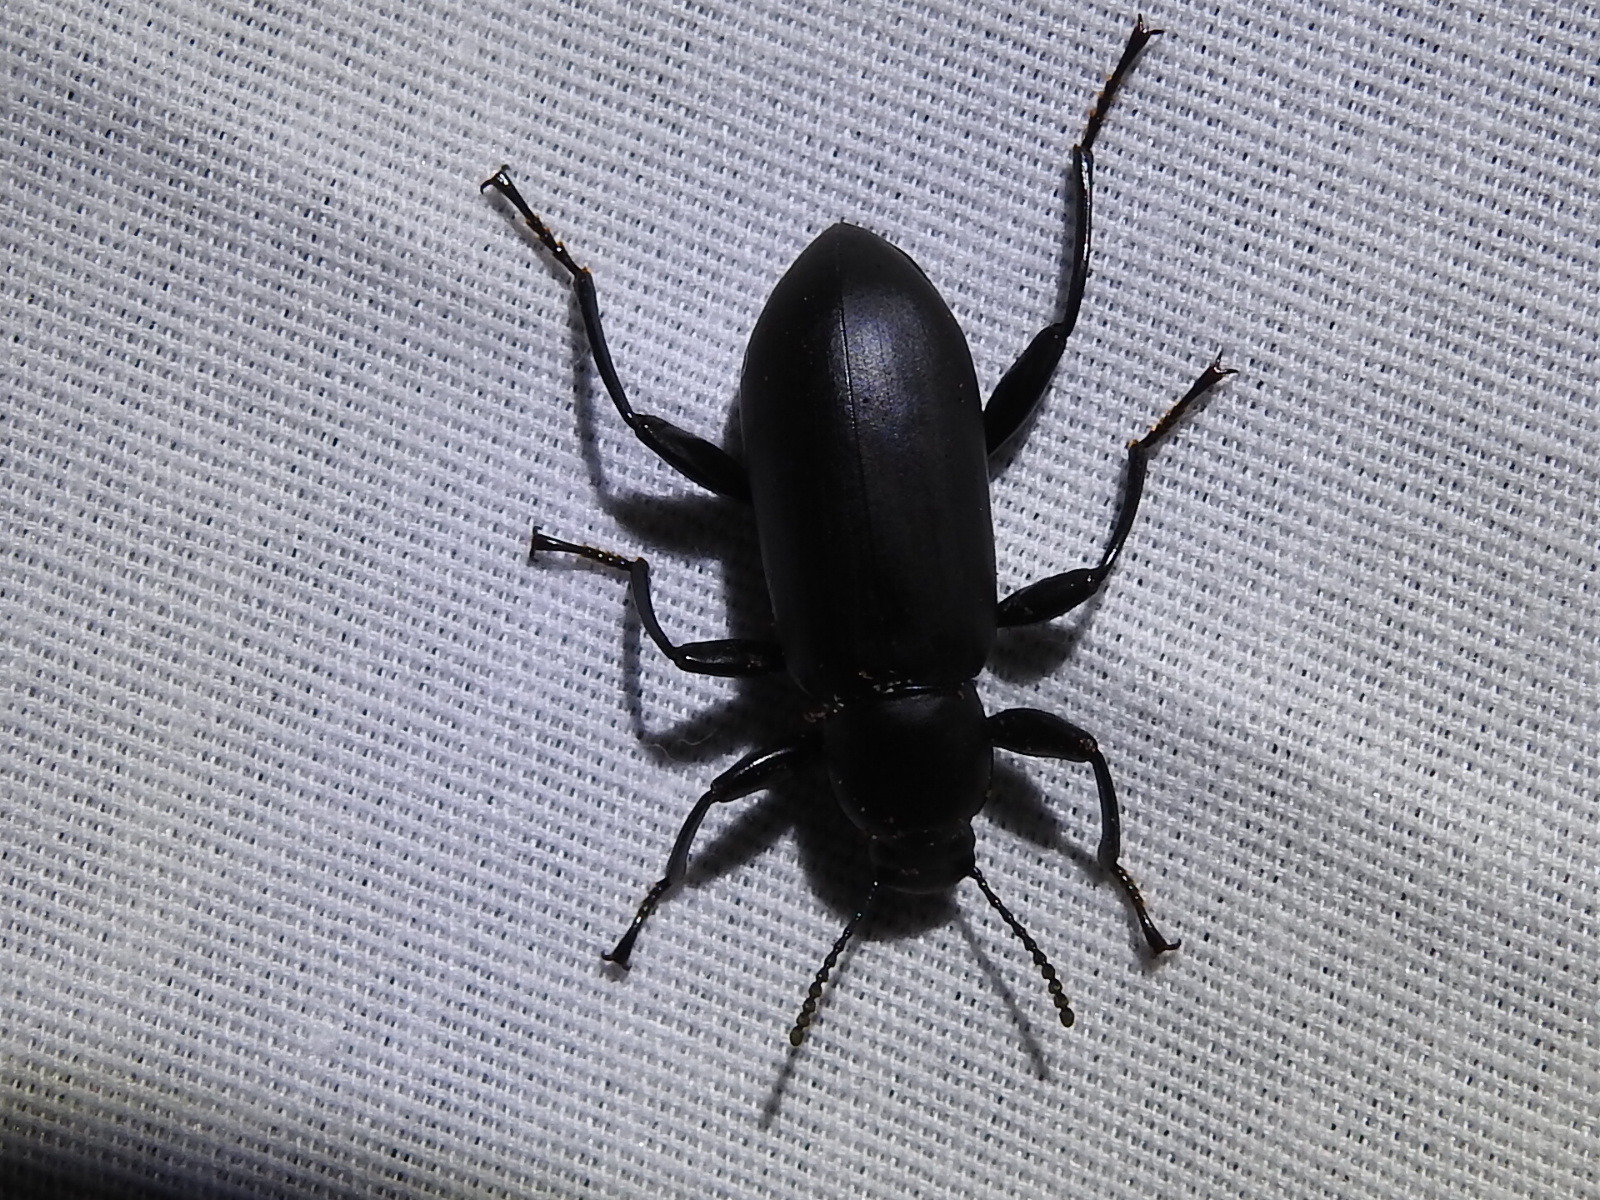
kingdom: Animalia
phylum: Arthropoda
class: Insecta
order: Coleoptera
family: Tenebrionidae
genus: Merinus
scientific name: Merinus laevis
